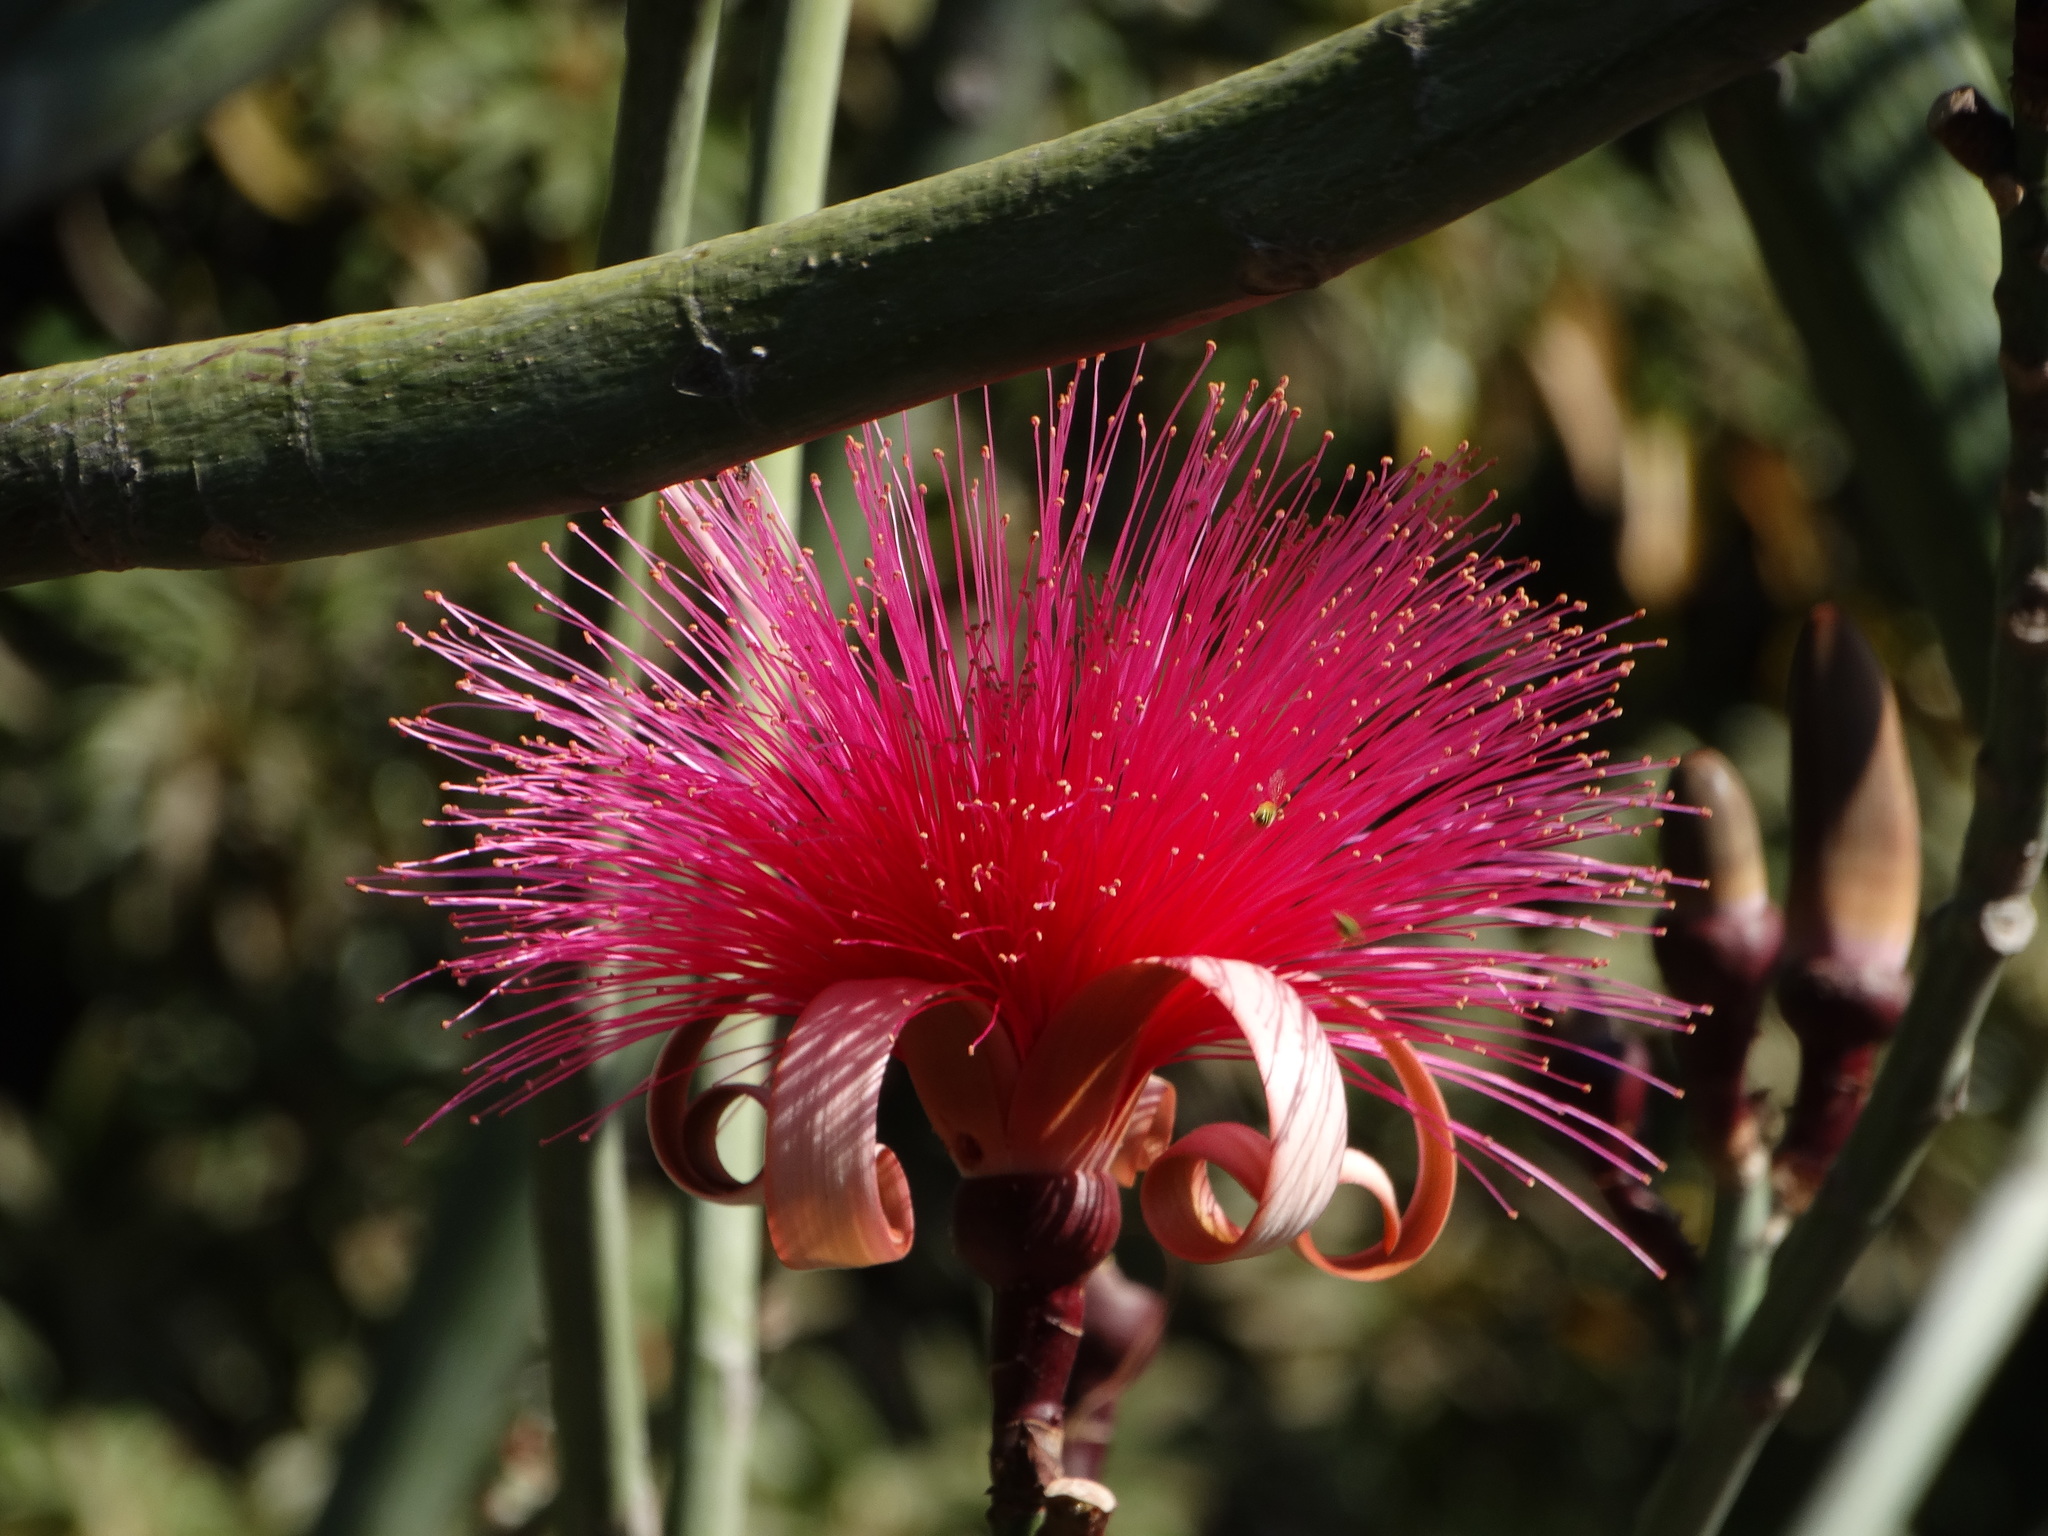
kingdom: Plantae
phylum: Tracheophyta
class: Magnoliopsida
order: Malvales
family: Malvaceae
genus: Pseudobombax
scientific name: Pseudobombax ellipticum
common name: Shaving-brush-tree
